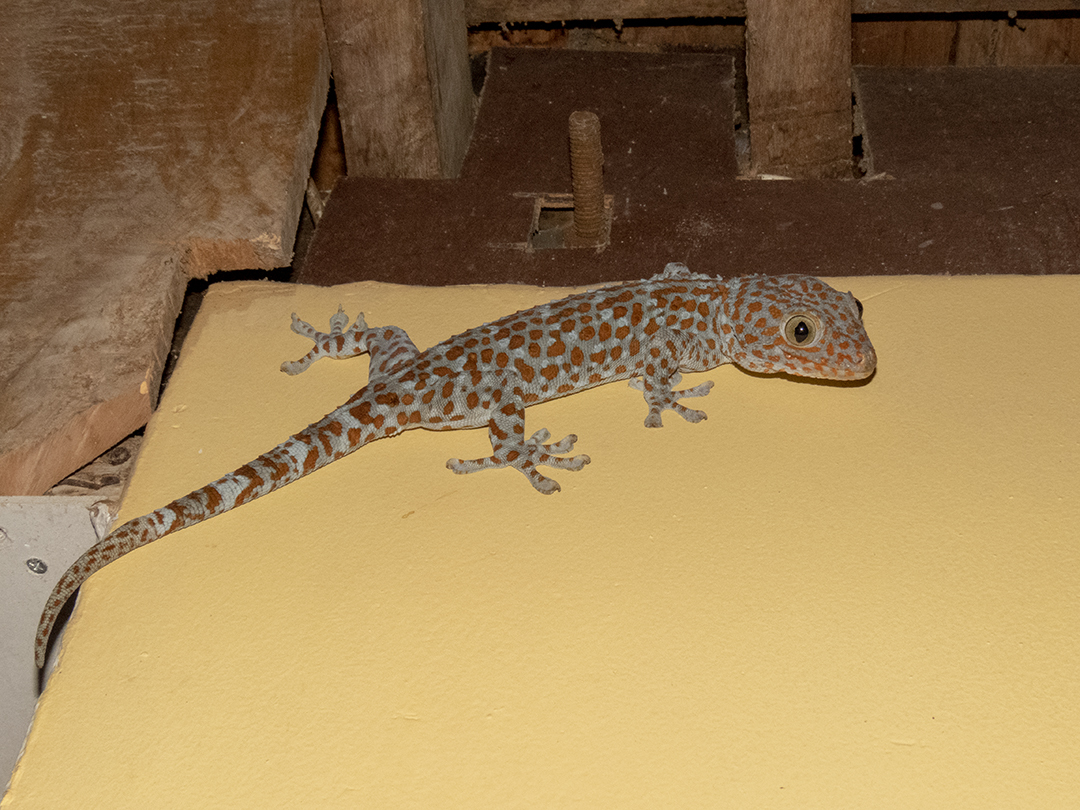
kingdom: Animalia
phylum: Chordata
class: Squamata
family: Gekkonidae
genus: Gekko
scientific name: Gekko gecko
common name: Tokay gecko
